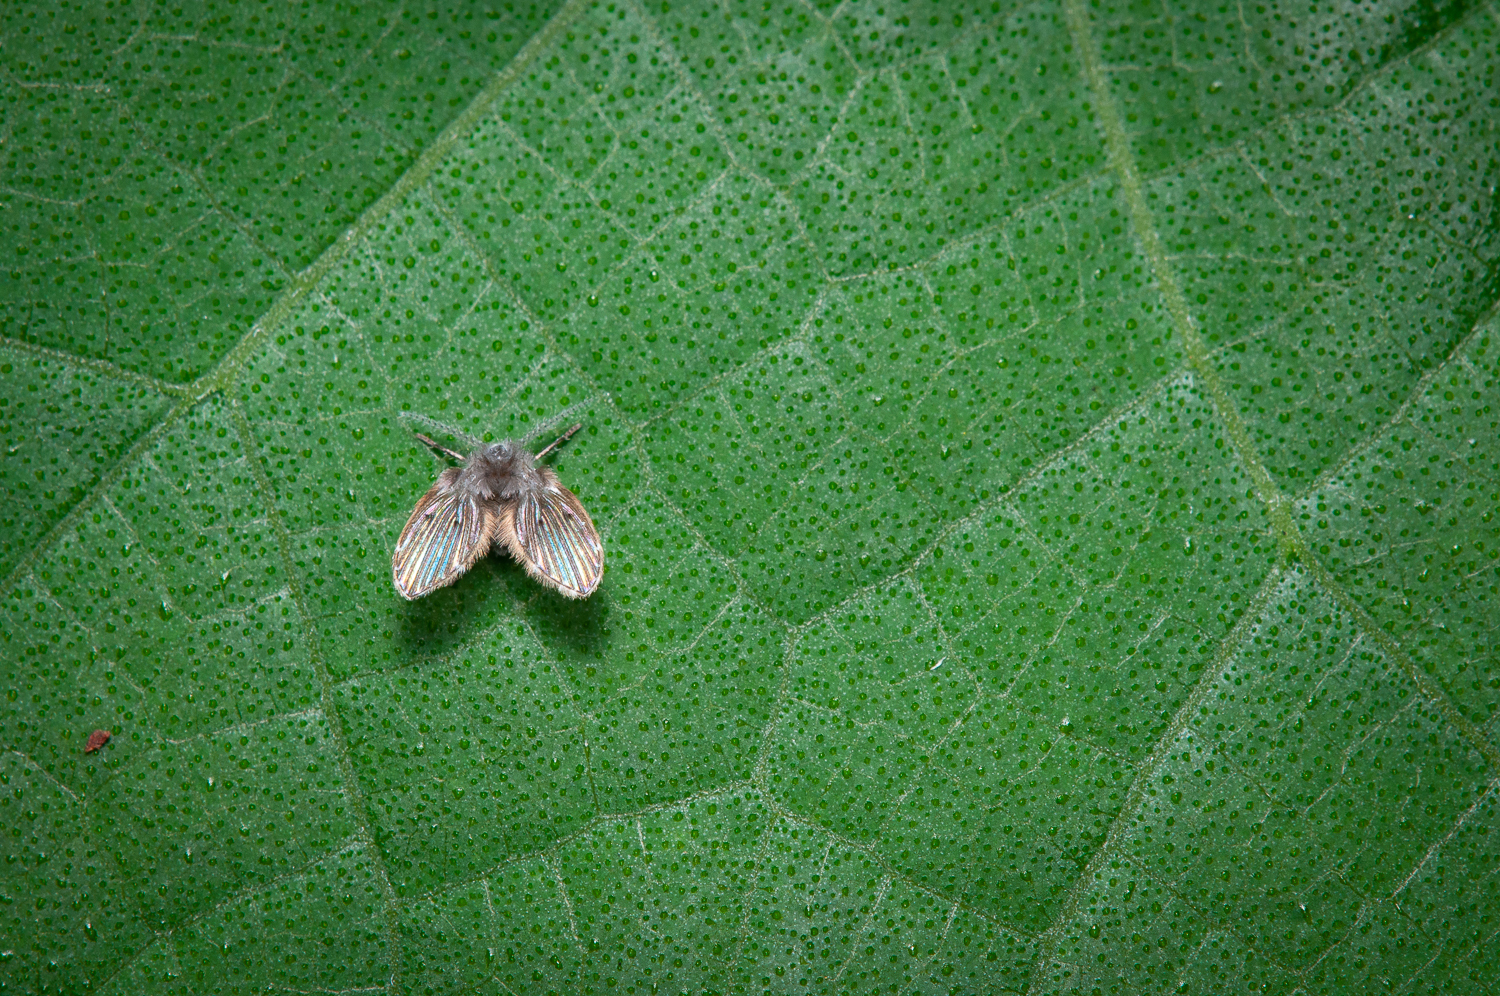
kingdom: Animalia
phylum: Arthropoda
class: Insecta
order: Diptera
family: Psychodidae
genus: Clogmia
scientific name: Clogmia albipunctatus
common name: White-spotted moth fly
